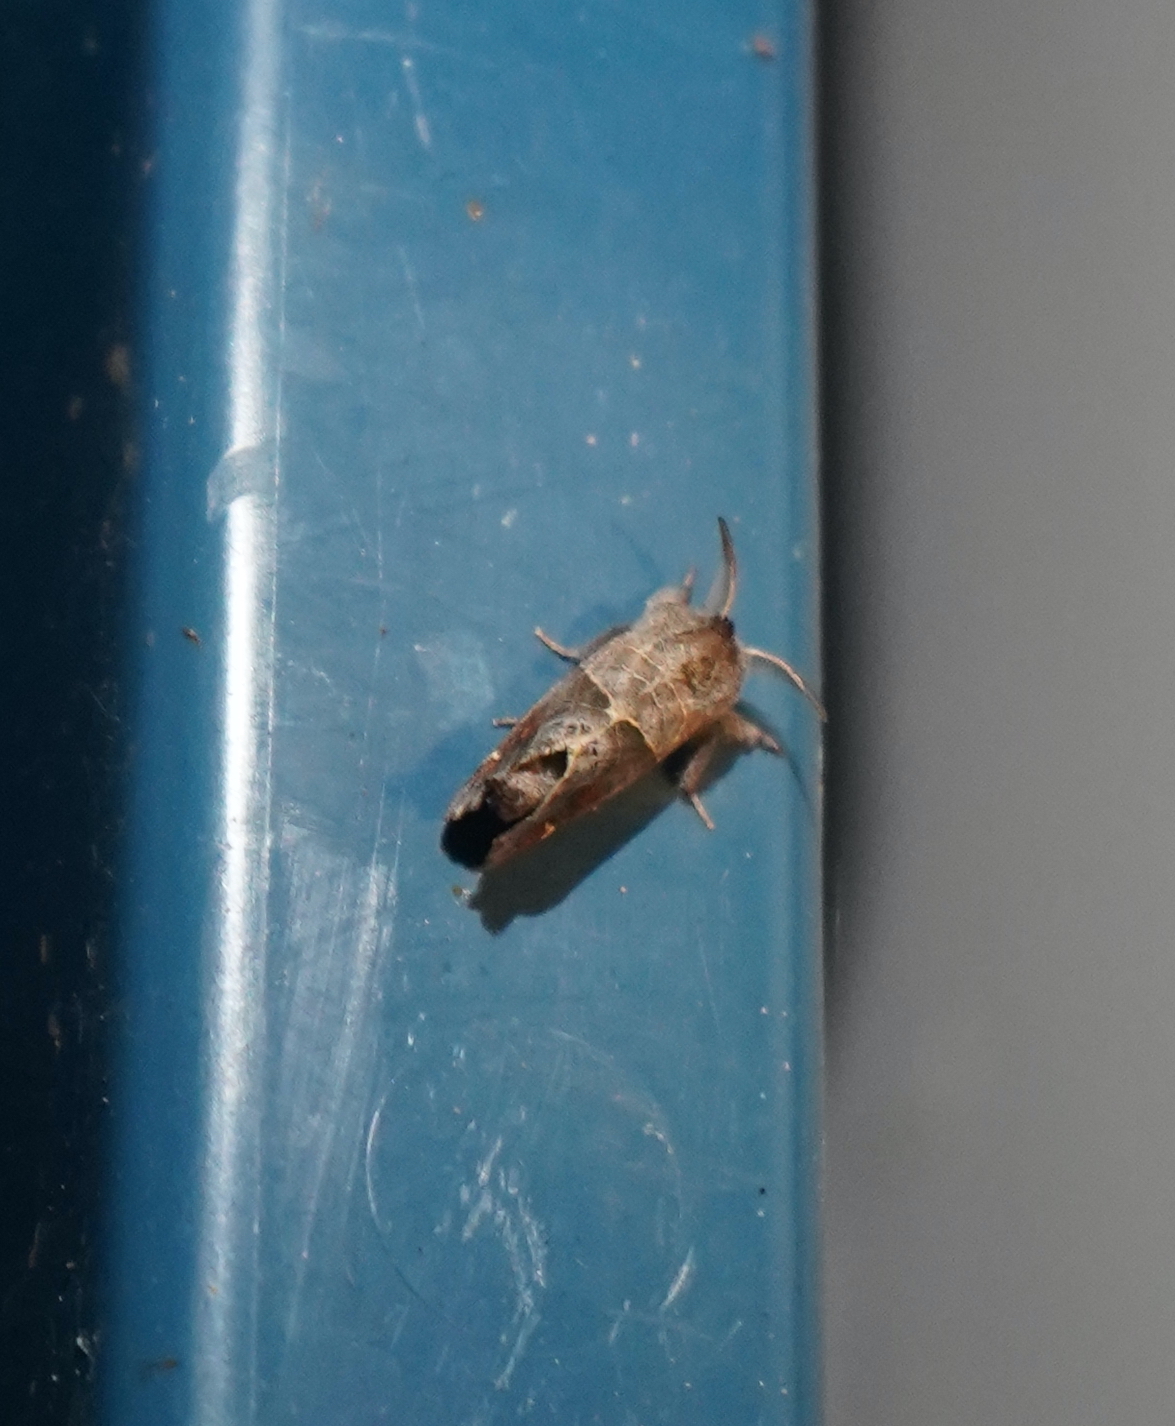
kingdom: Animalia
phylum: Arthropoda
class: Insecta
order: Lepidoptera
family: Notodontidae
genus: Clostera
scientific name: Clostera strigosa
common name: Striped chocolate-tip moth
